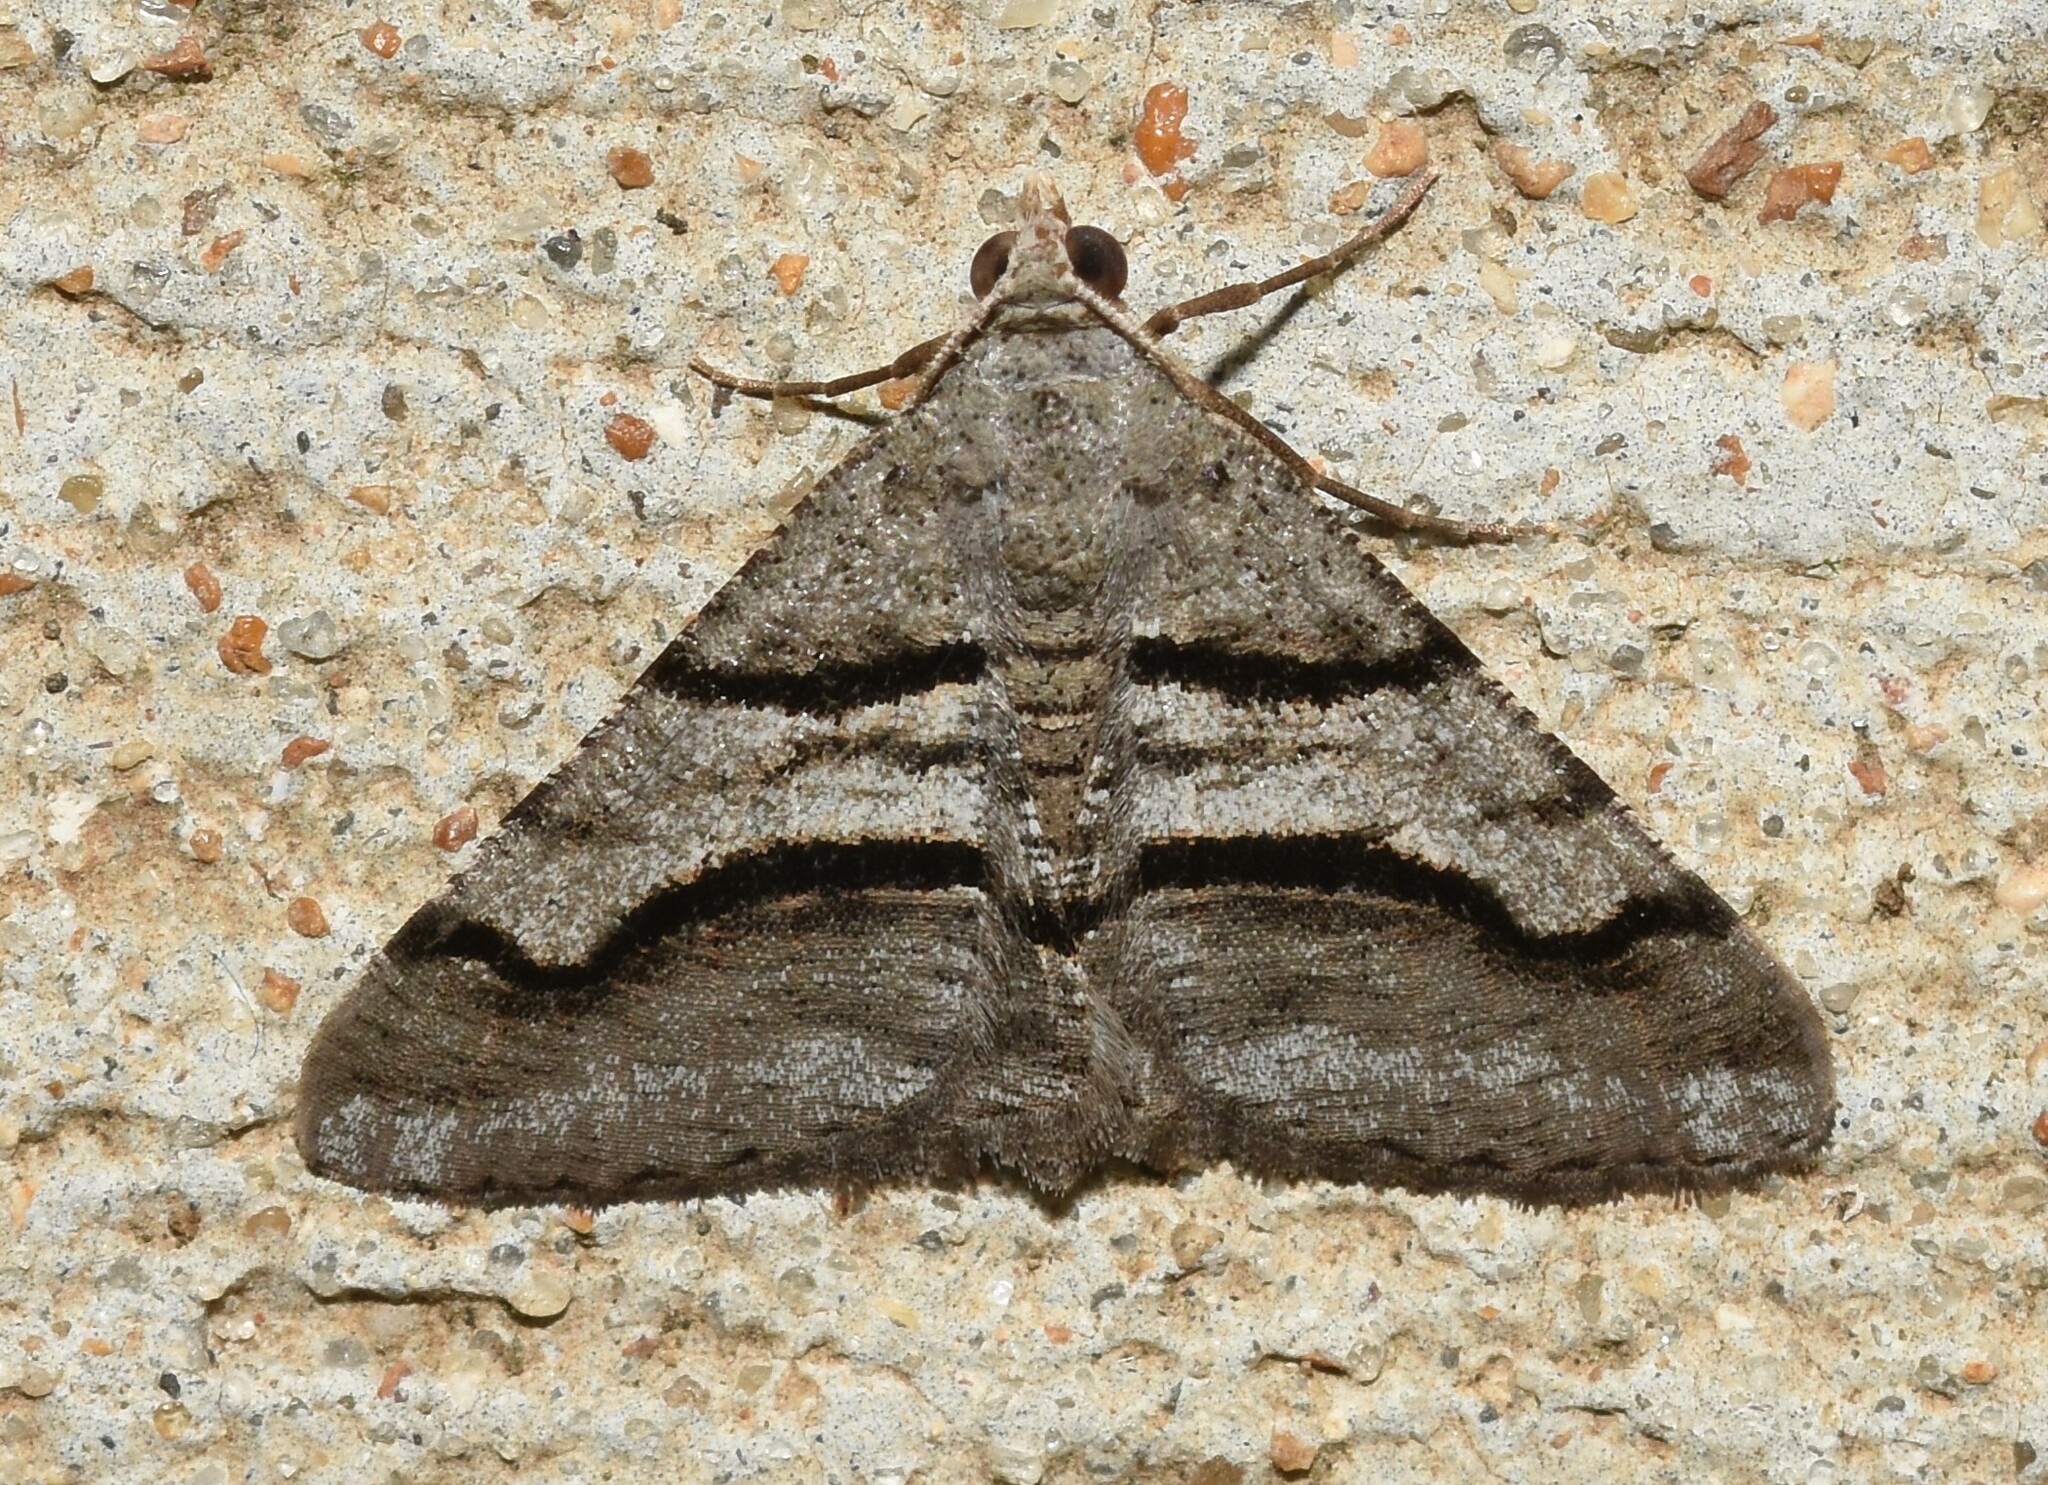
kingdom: Animalia
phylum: Arthropoda
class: Insecta
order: Lepidoptera
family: Geometridae
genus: Digrammia
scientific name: Digrammia continuata
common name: Curve-lined angle
